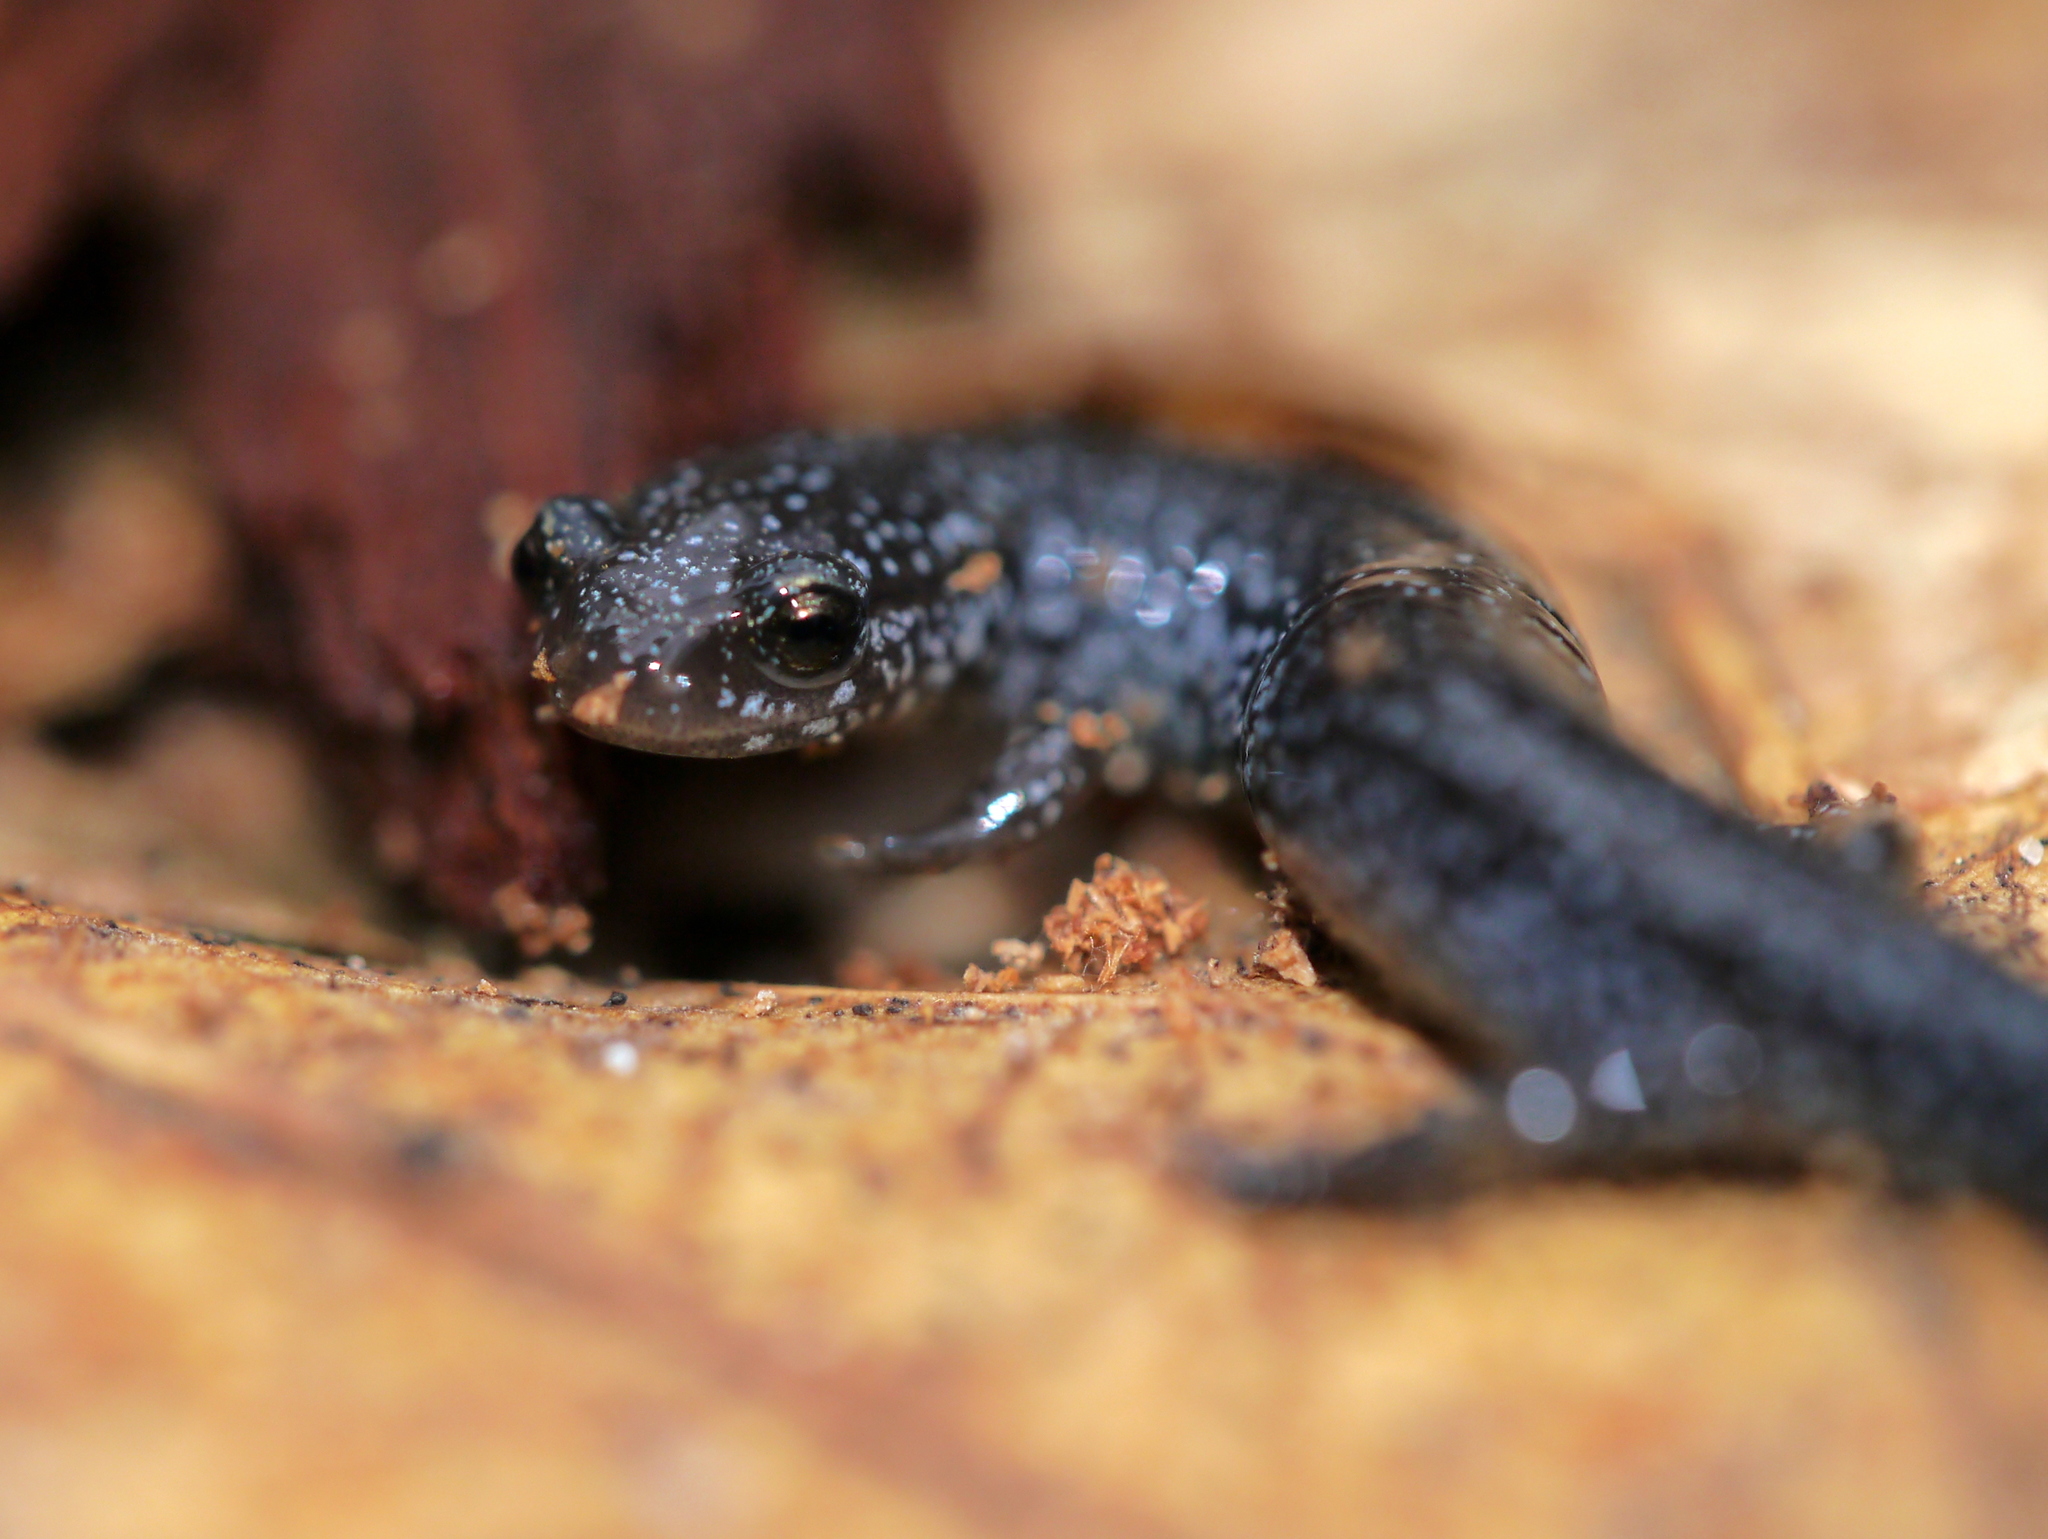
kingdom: Animalia
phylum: Chordata
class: Amphibia
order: Caudata
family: Plethodontidae
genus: Plethodon
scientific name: Plethodon cinereus
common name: Redback salamander
